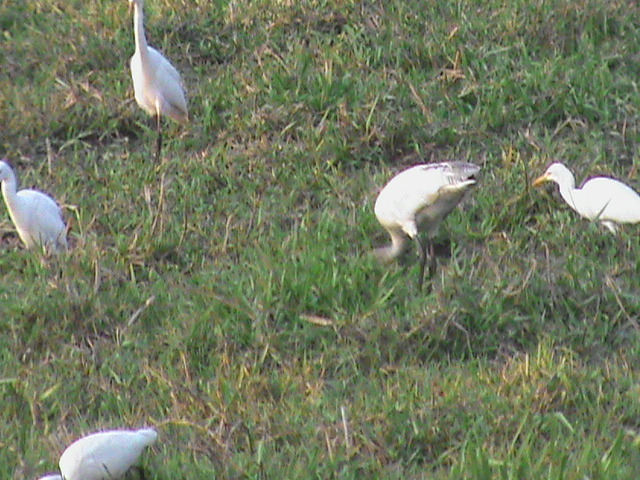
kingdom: Animalia
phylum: Chordata
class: Aves
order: Pelecaniformes
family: Ardeidae
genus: Bubulcus
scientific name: Bubulcus coromandus
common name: Eastern cattle egret
